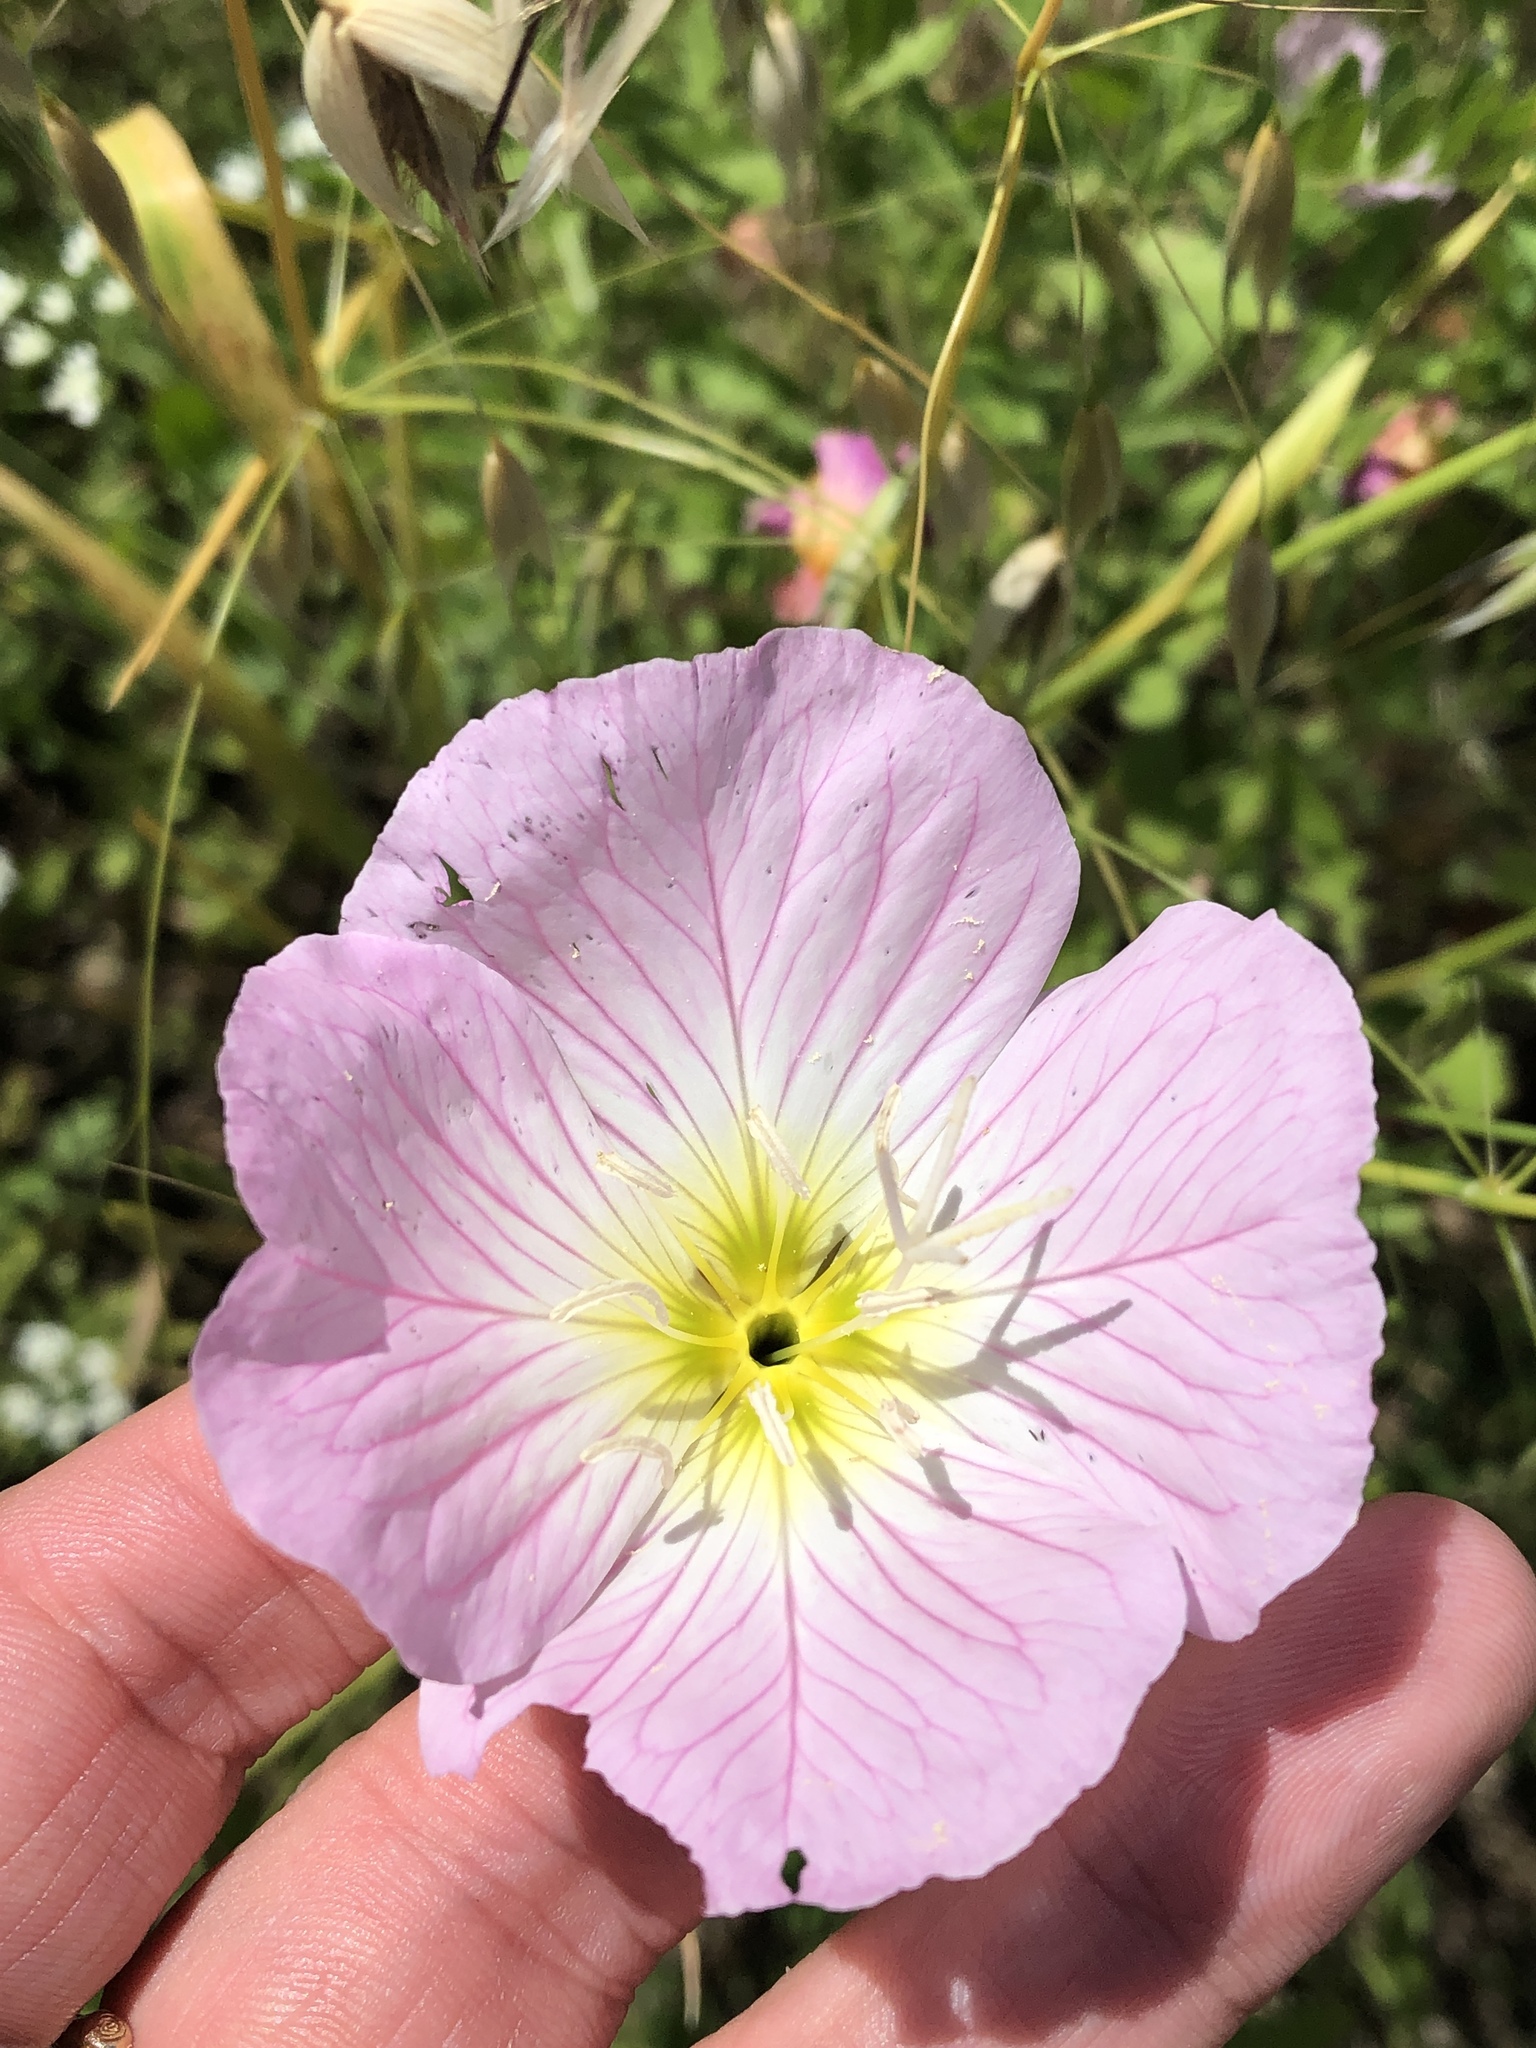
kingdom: Plantae
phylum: Tracheophyta
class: Magnoliopsida
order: Myrtales
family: Onagraceae
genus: Oenothera
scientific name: Oenothera speciosa
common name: White evening-primrose
